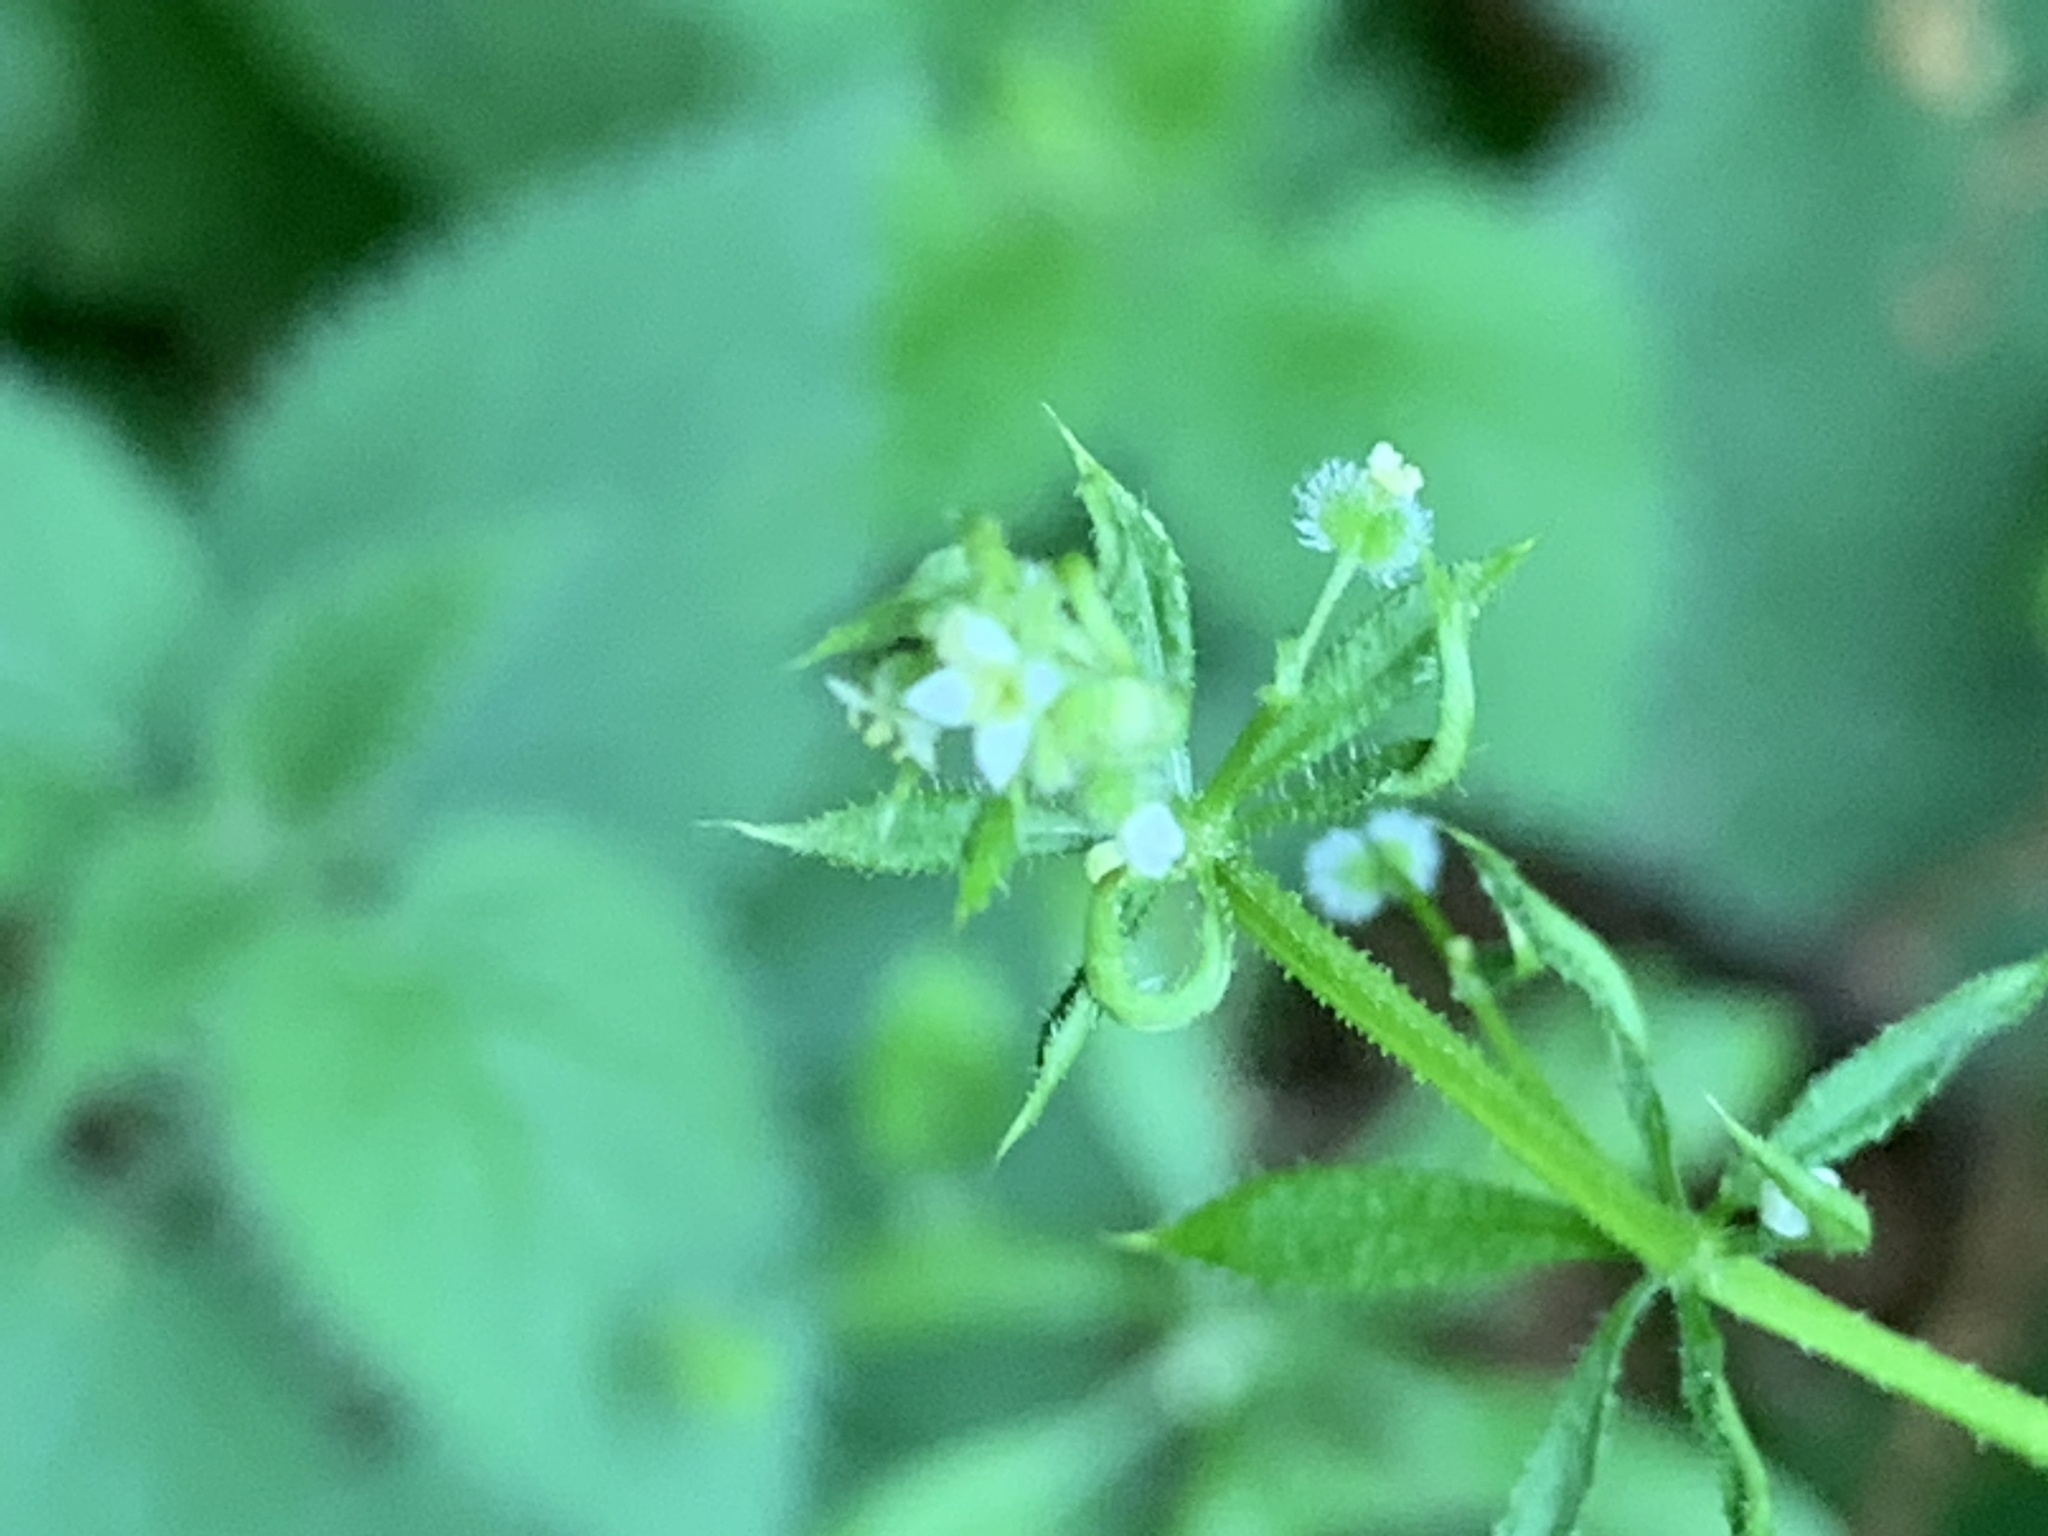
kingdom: Plantae
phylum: Tracheophyta
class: Magnoliopsida
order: Gentianales
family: Rubiaceae
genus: Galium
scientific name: Galium aparine
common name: Cleavers
